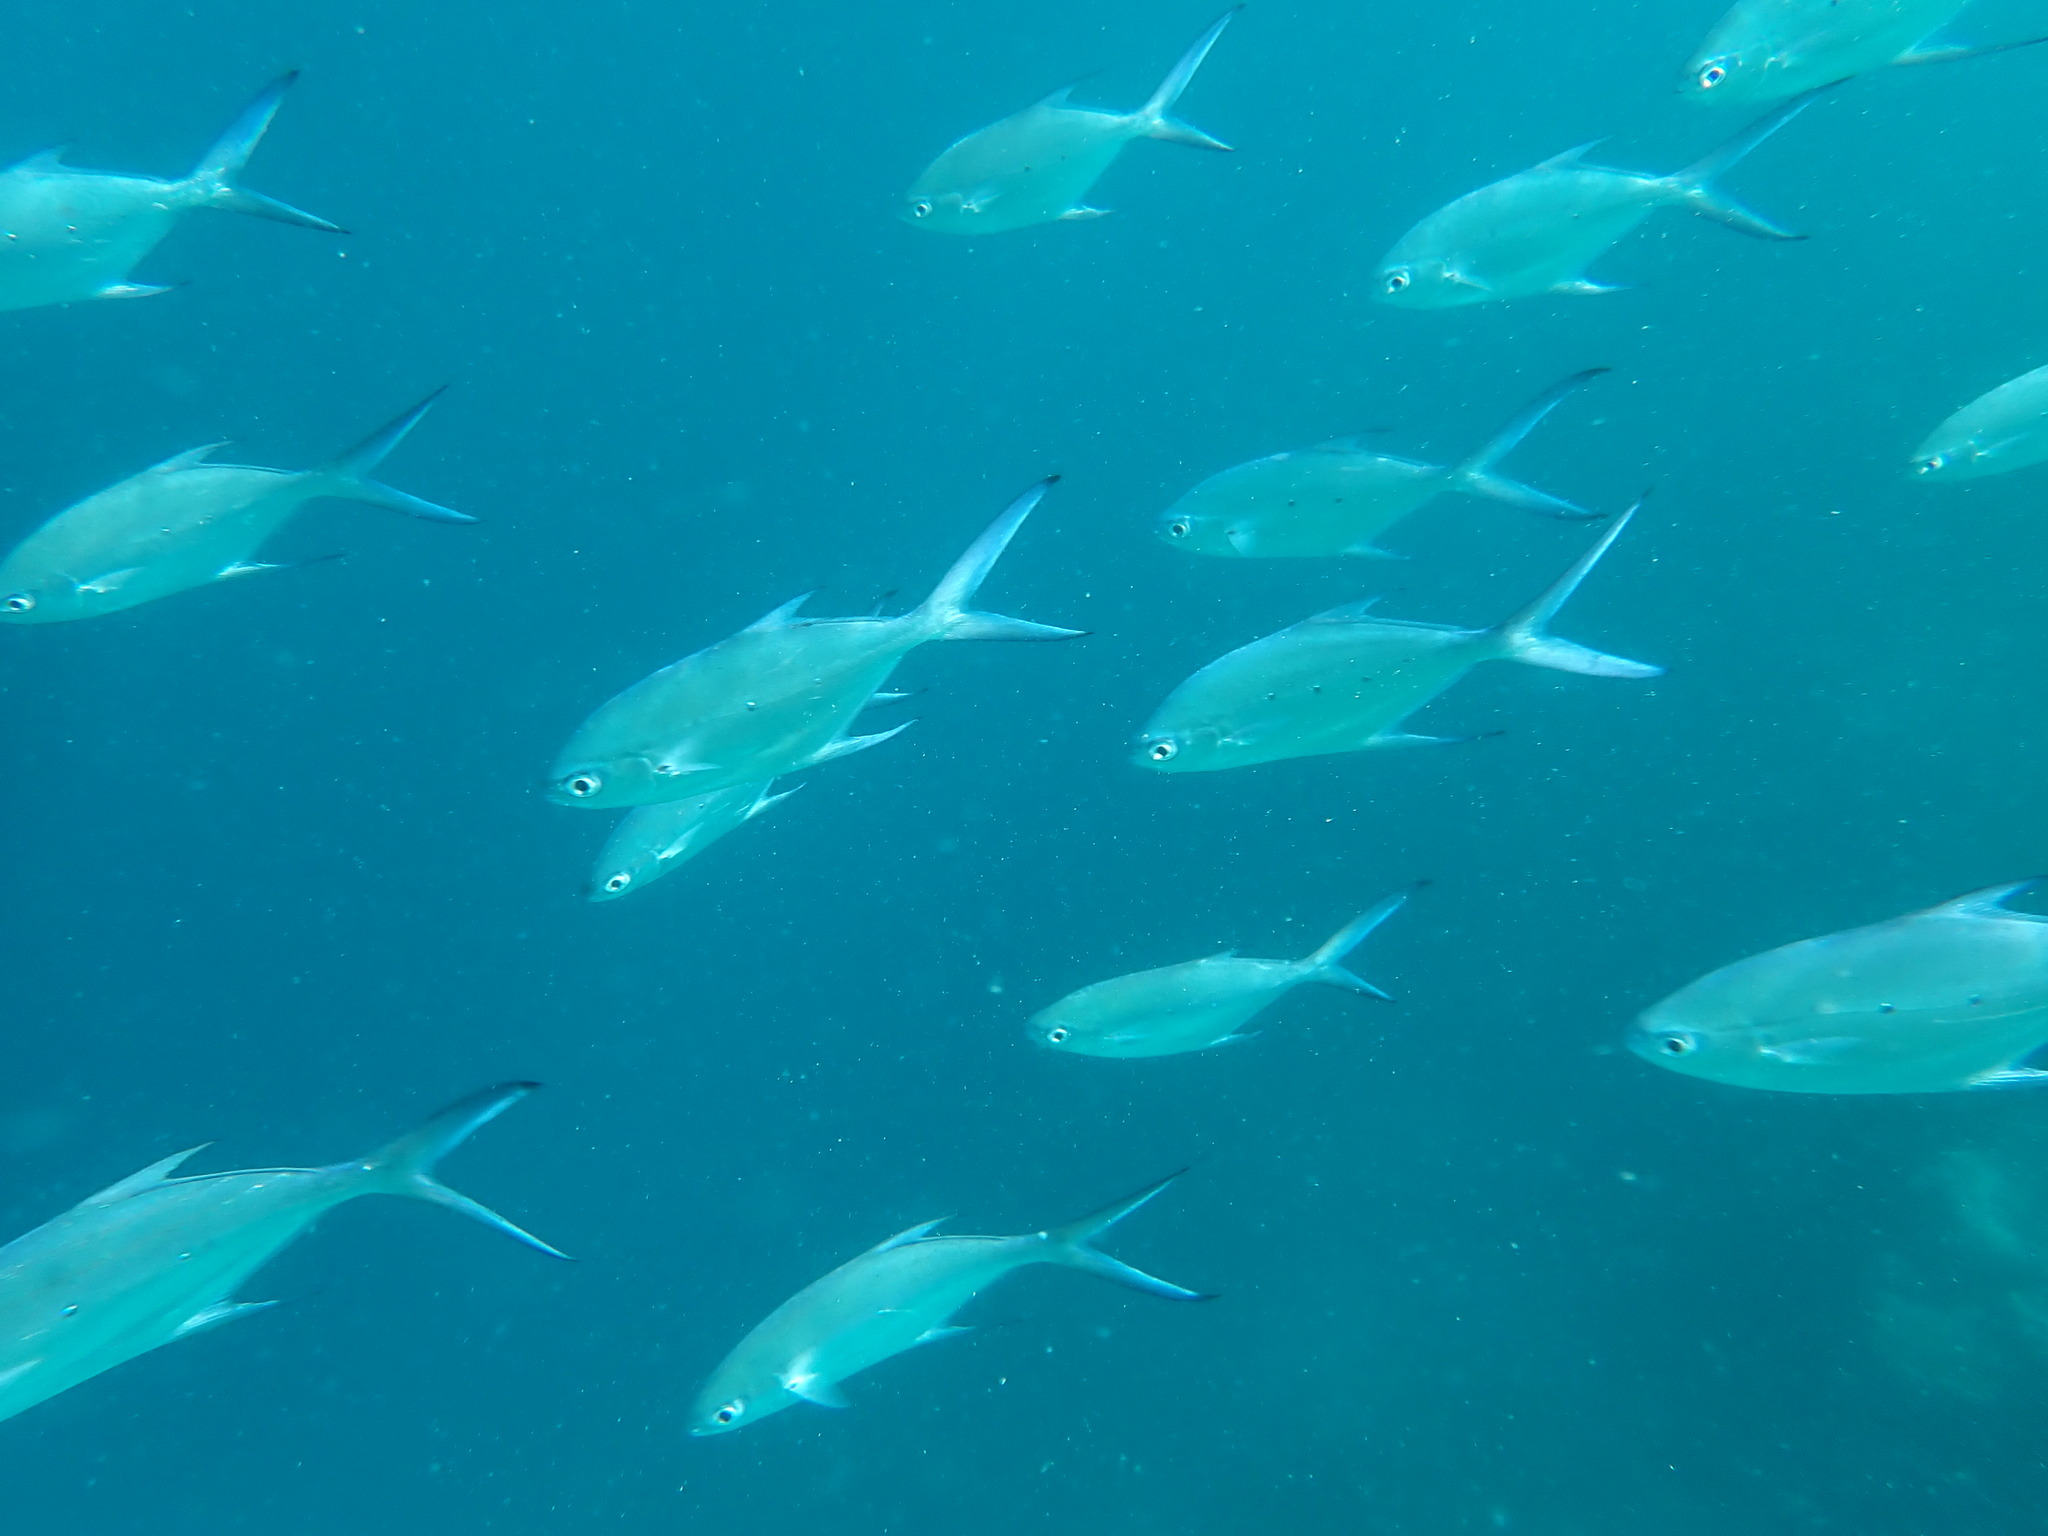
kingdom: Animalia
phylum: Chordata
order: Perciformes
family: Carangidae
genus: Trachinotus
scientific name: Trachinotus baillonii
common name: Smallspotted dart
